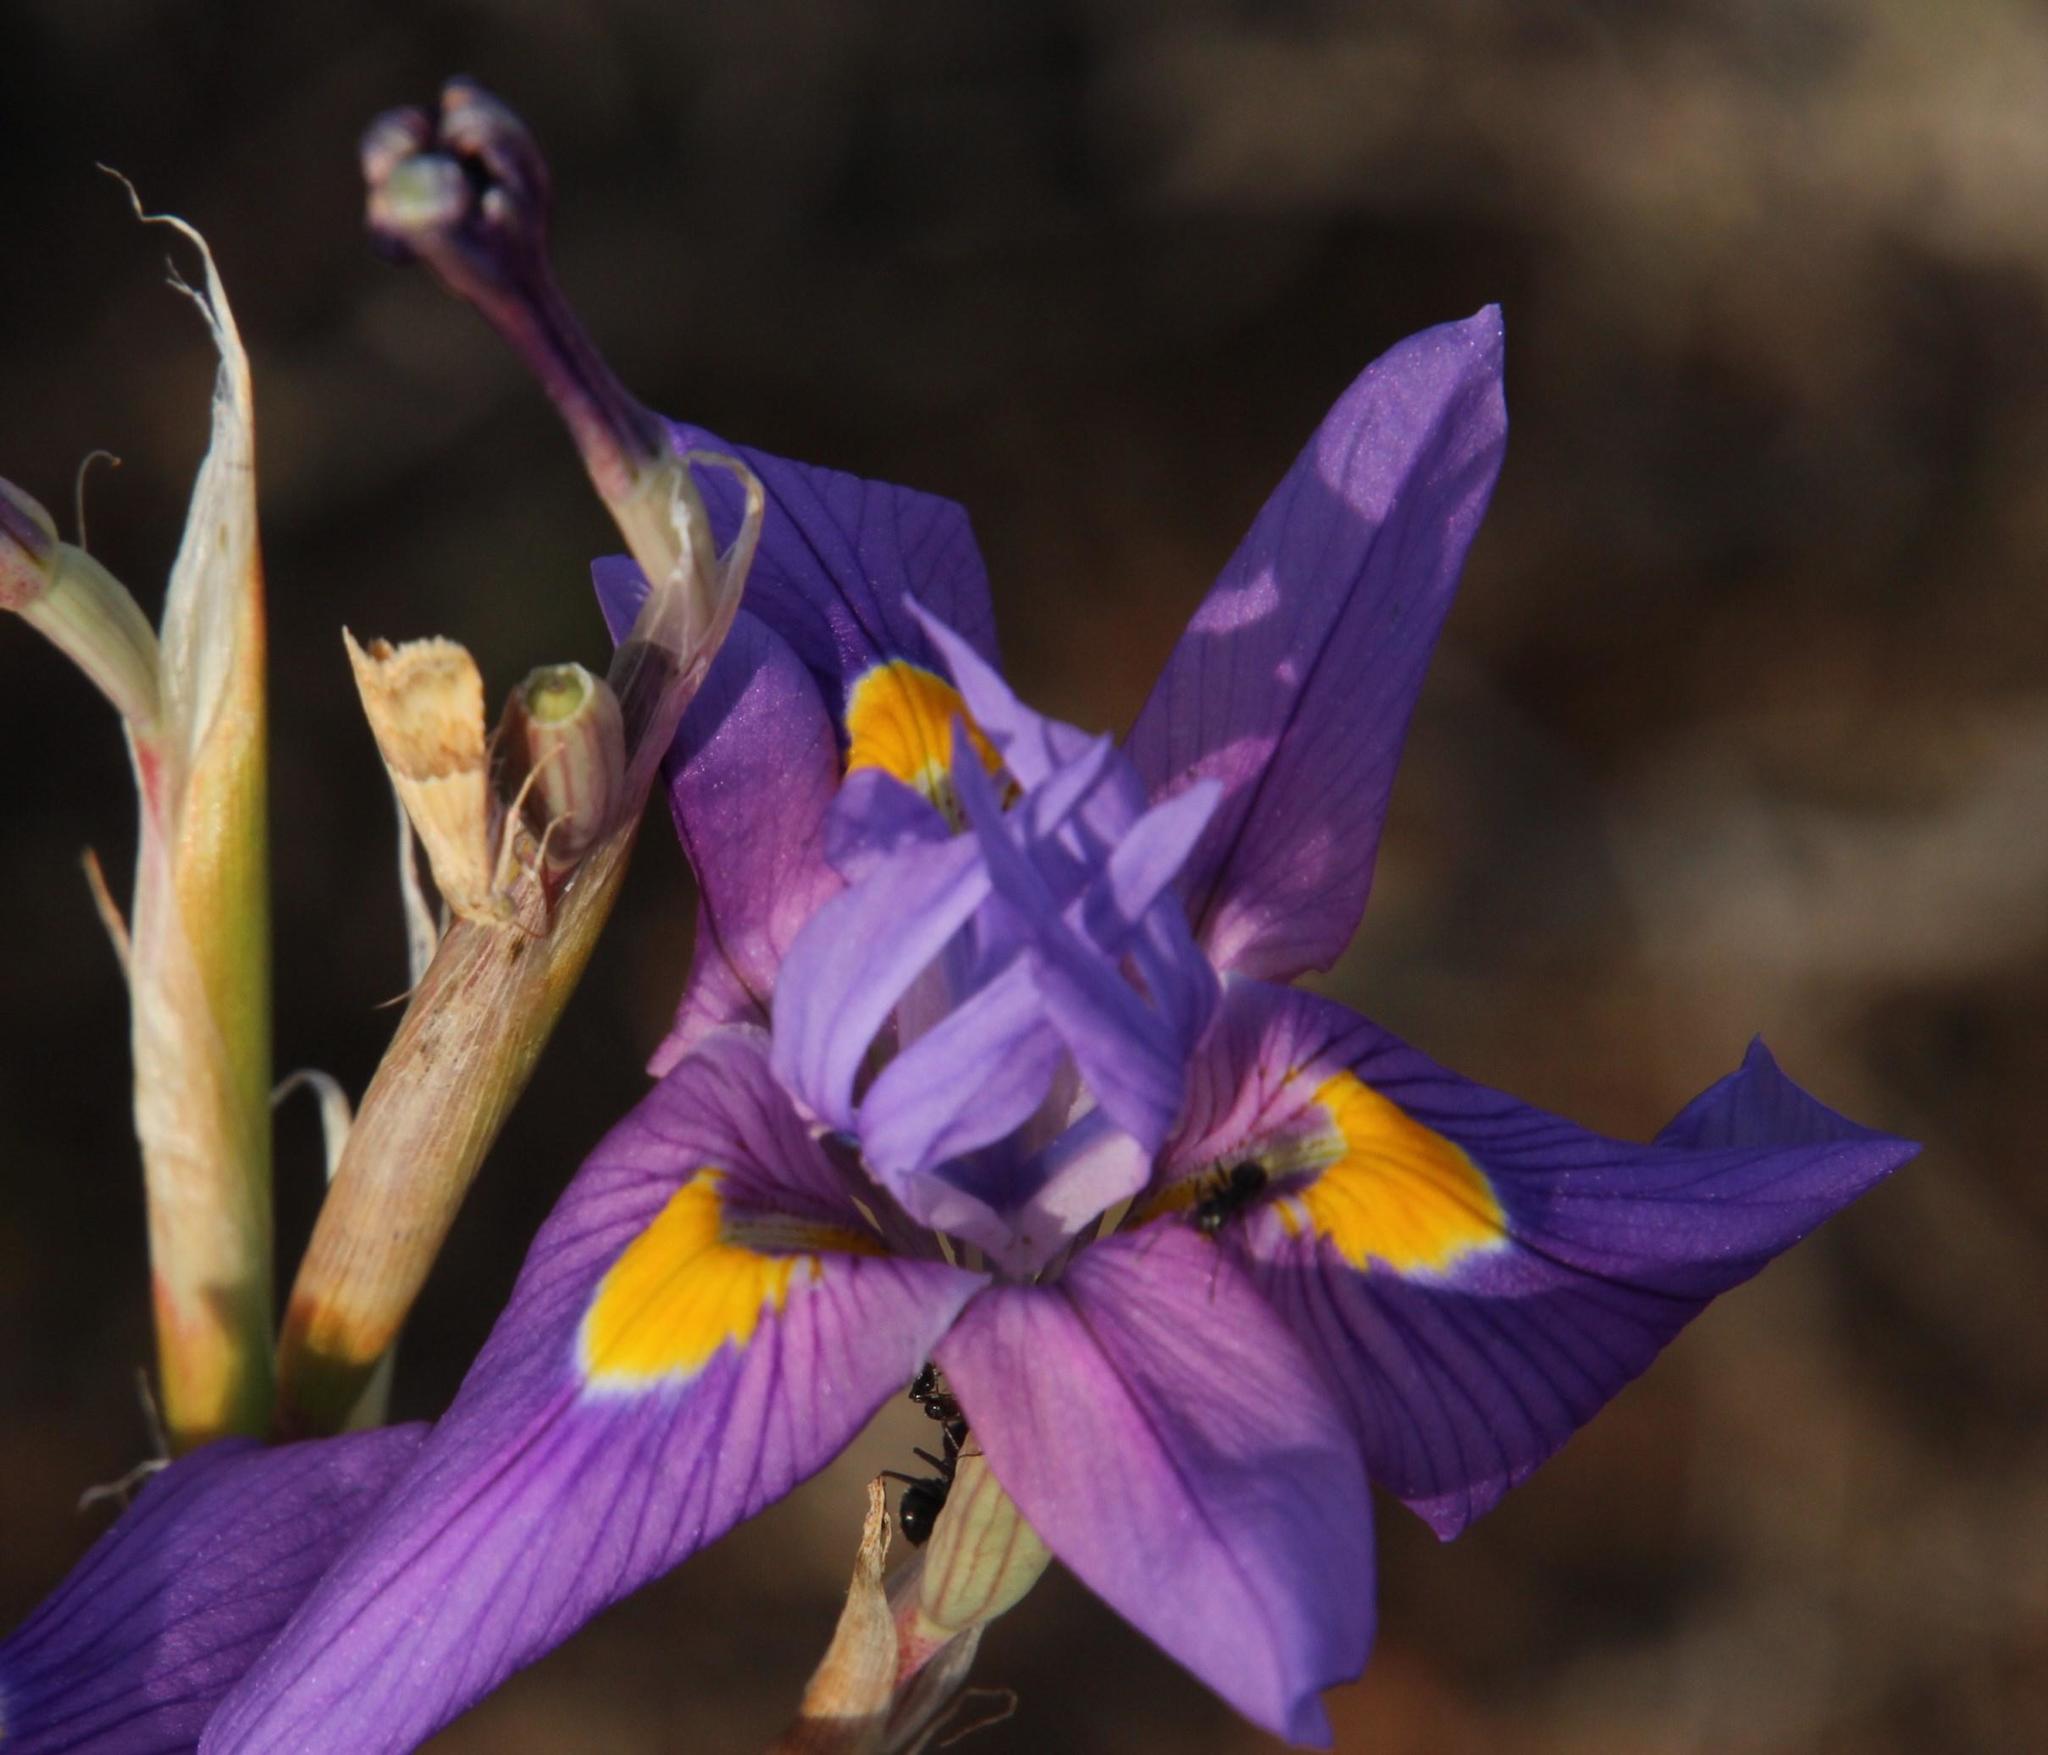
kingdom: Animalia
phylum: Arthropoda
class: Insecta
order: Lepidoptera
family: Noctuidae
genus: Eublemma
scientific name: Eublemma caffrorum
